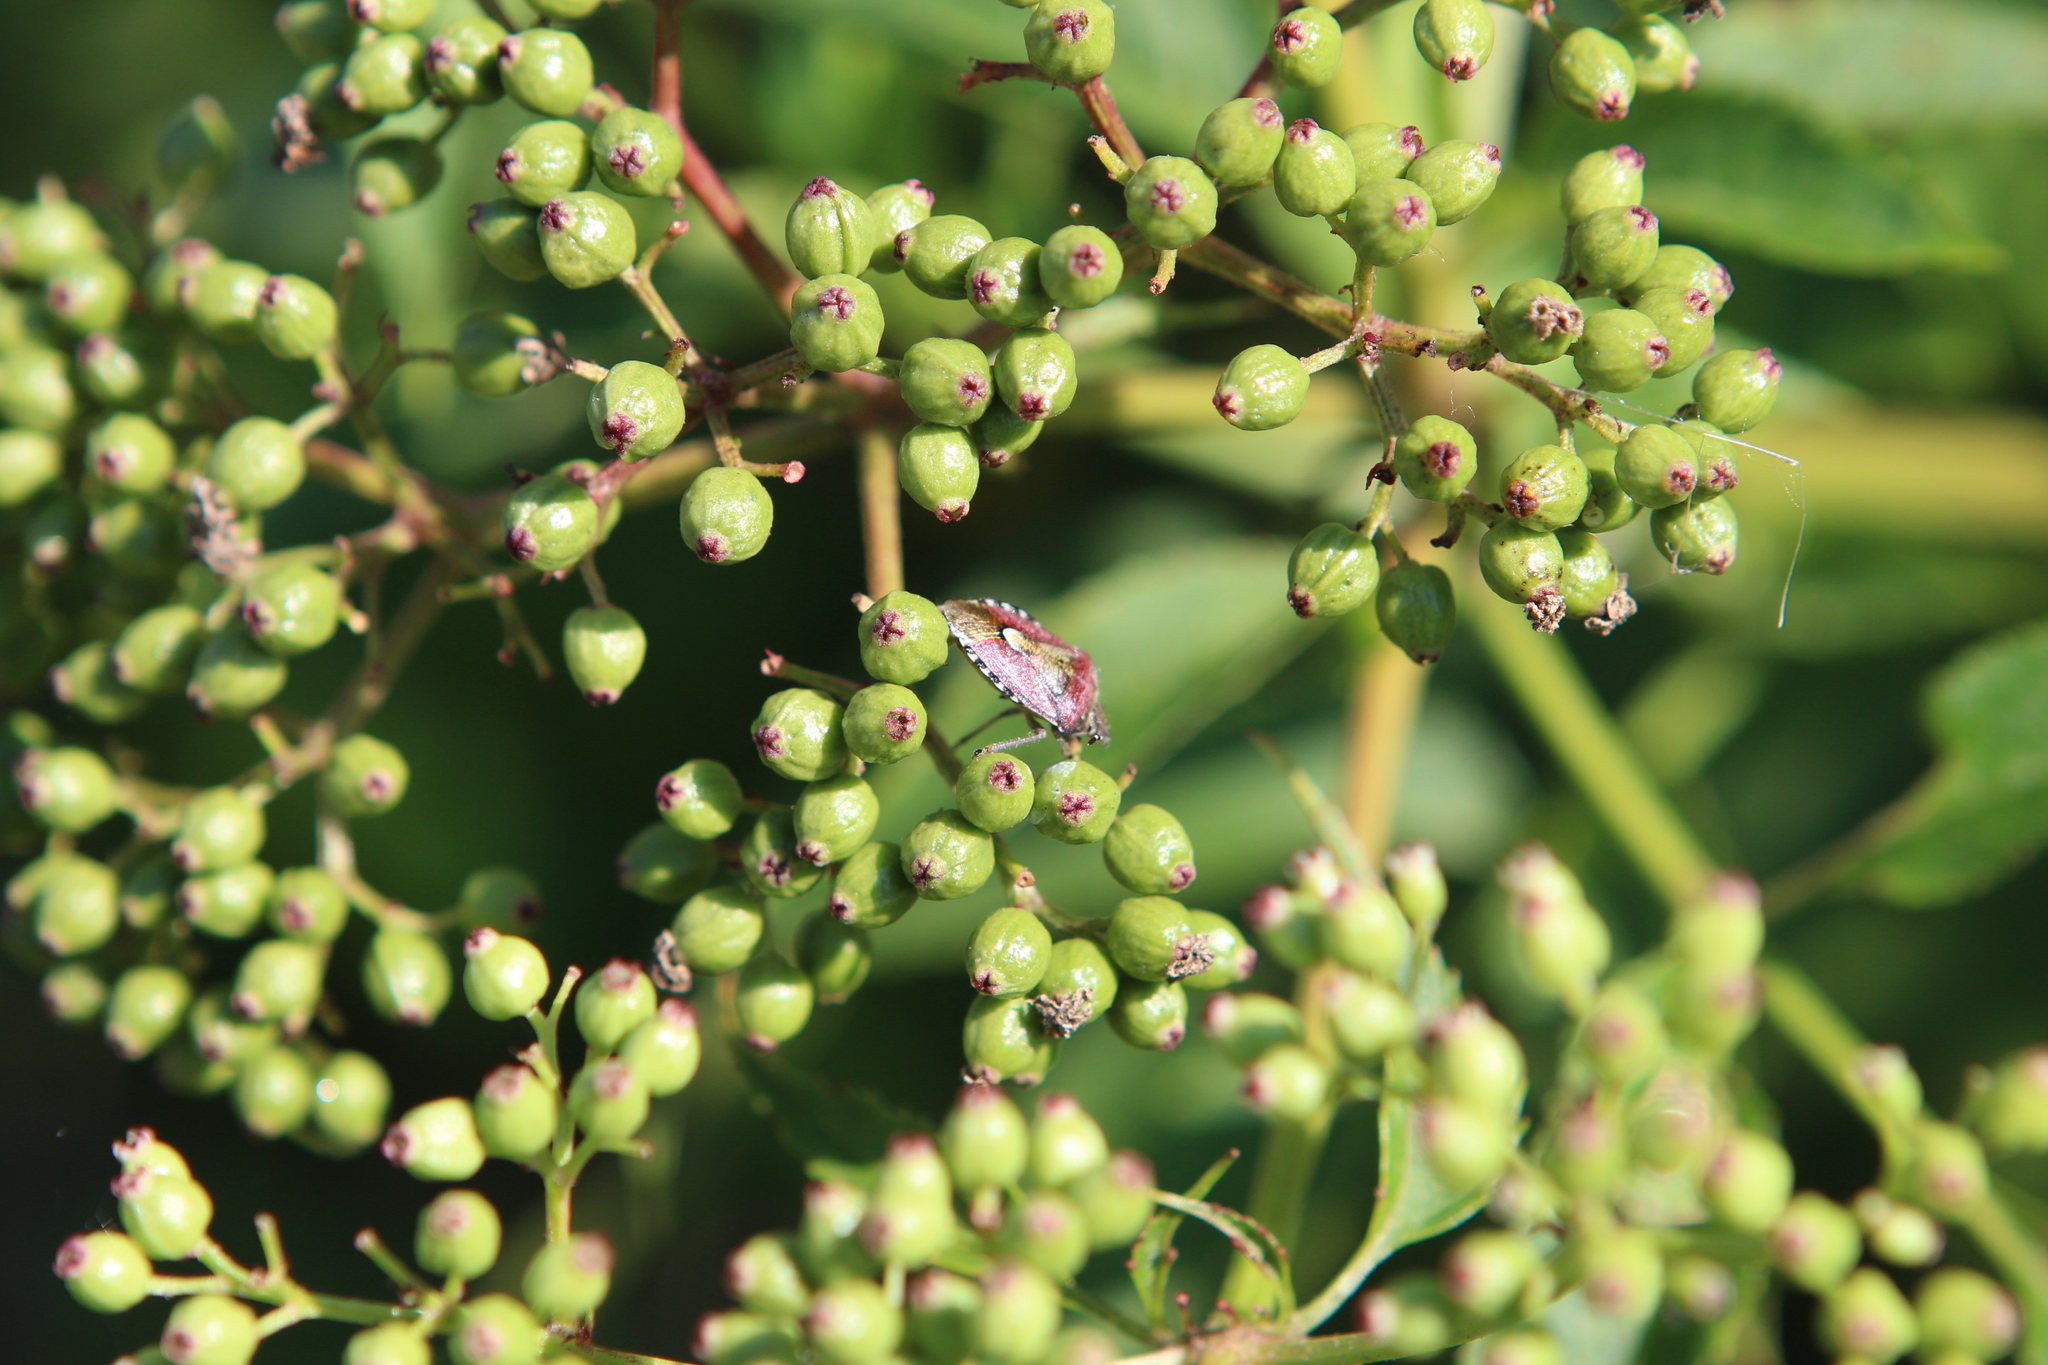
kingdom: Animalia
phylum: Arthropoda
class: Insecta
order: Hemiptera
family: Pentatomidae
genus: Dolycoris
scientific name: Dolycoris baccarum
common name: Sloe bug
